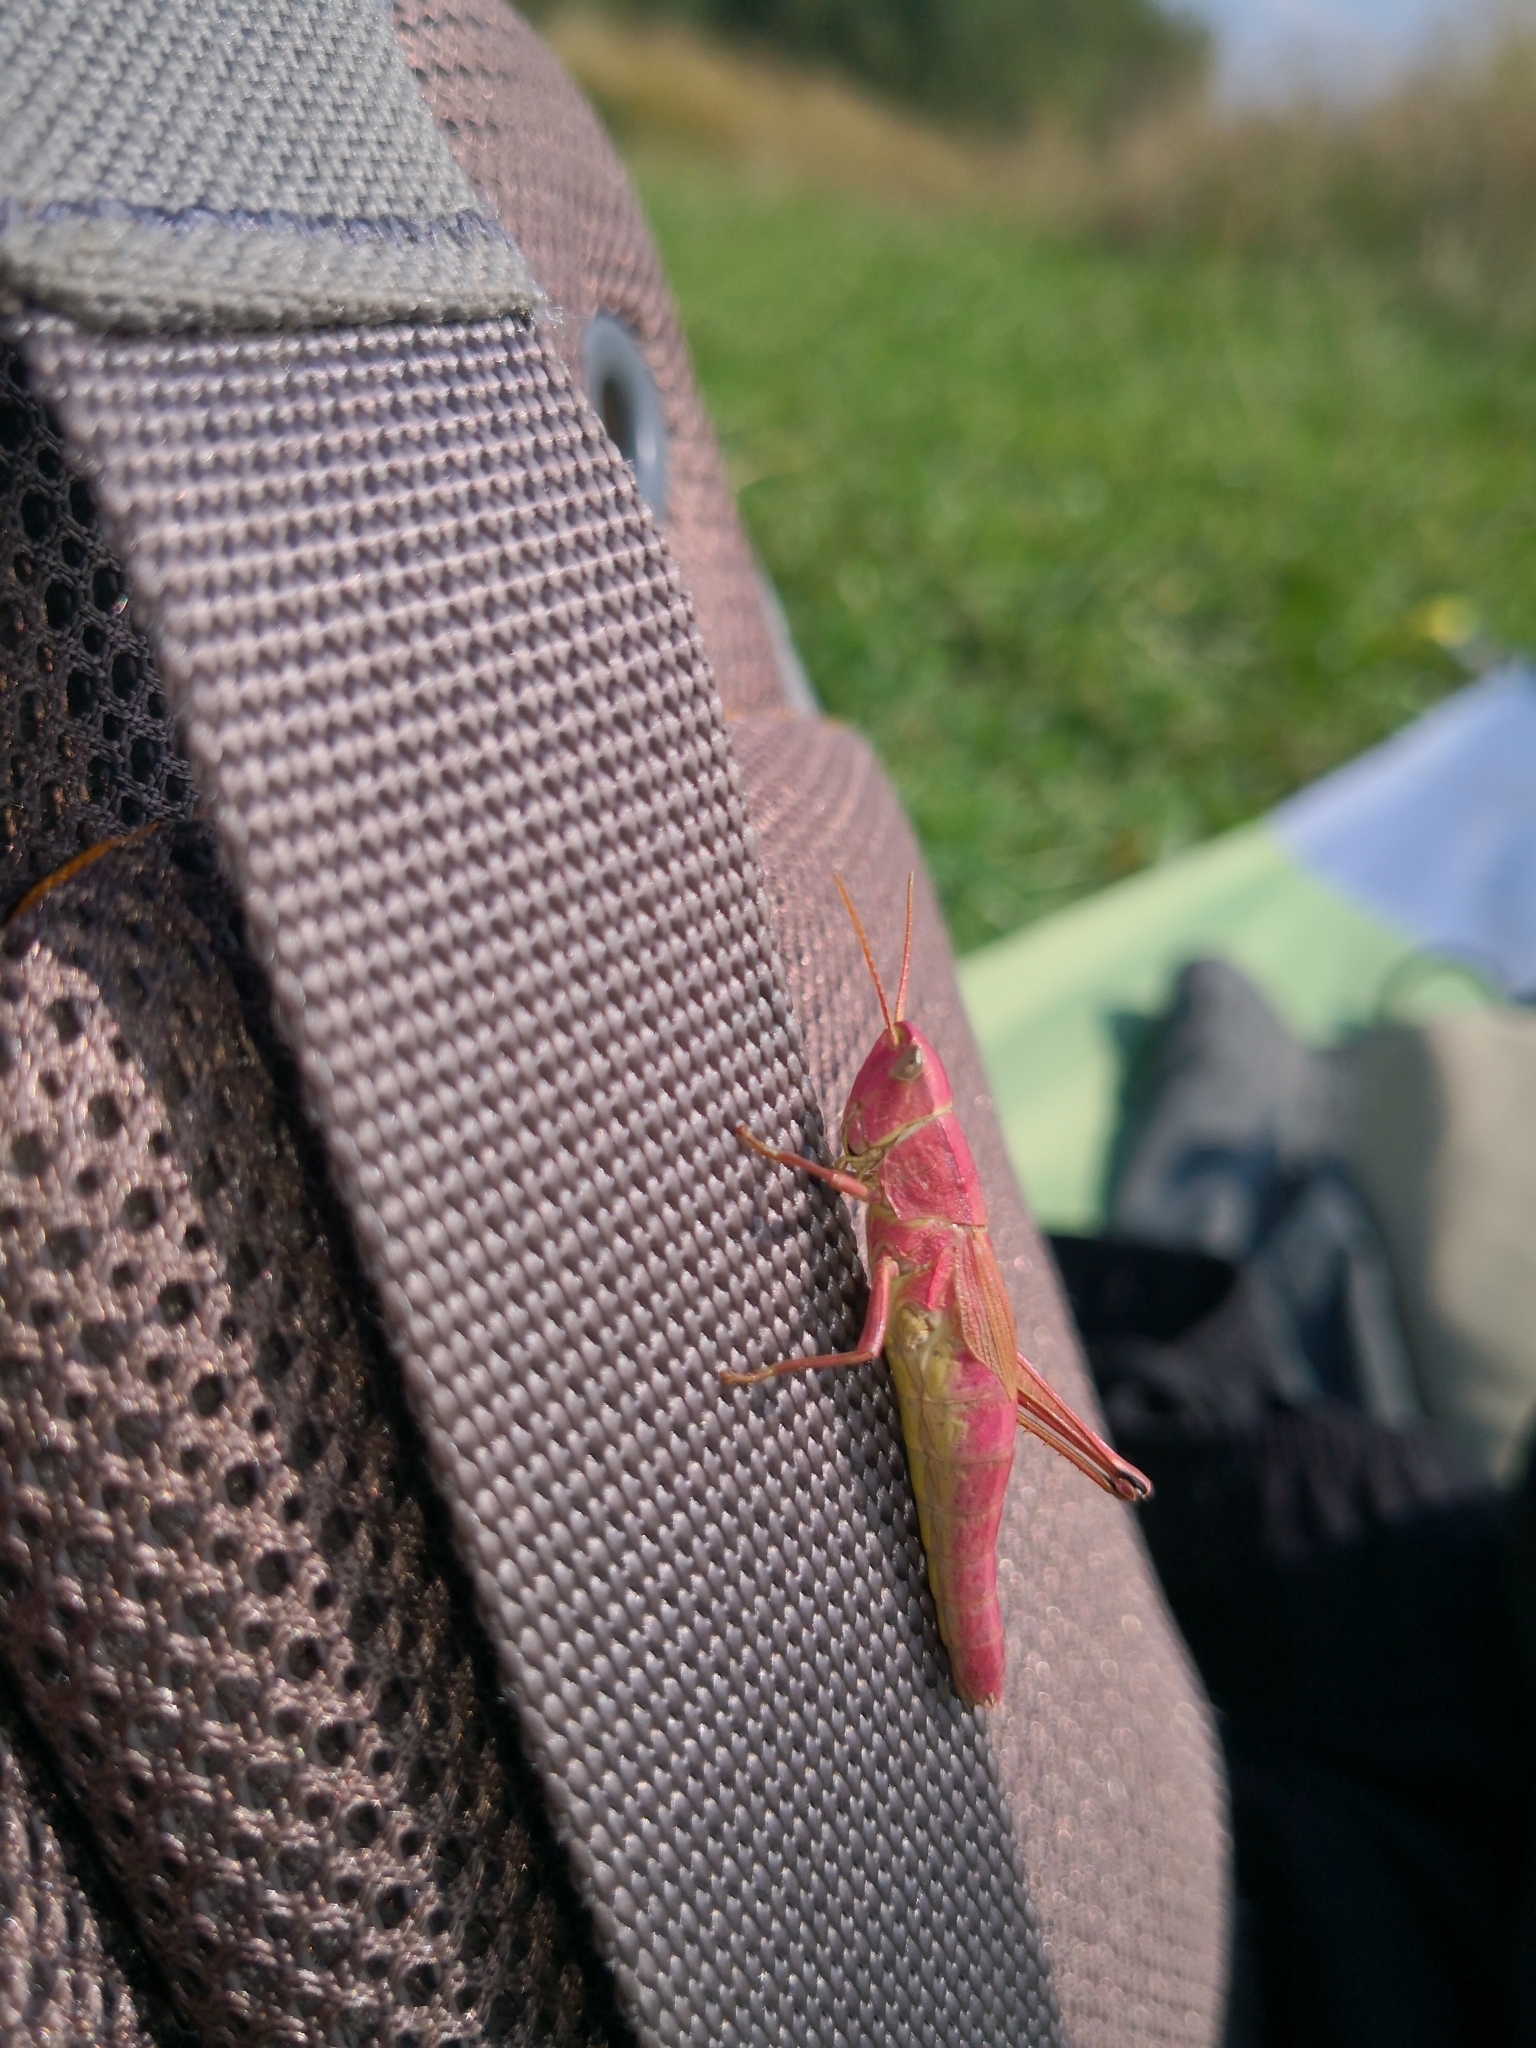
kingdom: Animalia
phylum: Arthropoda
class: Insecta
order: Orthoptera
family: Acrididae
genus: Chrysochraon
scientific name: Chrysochraon dispar
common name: Large gold grasshopper
